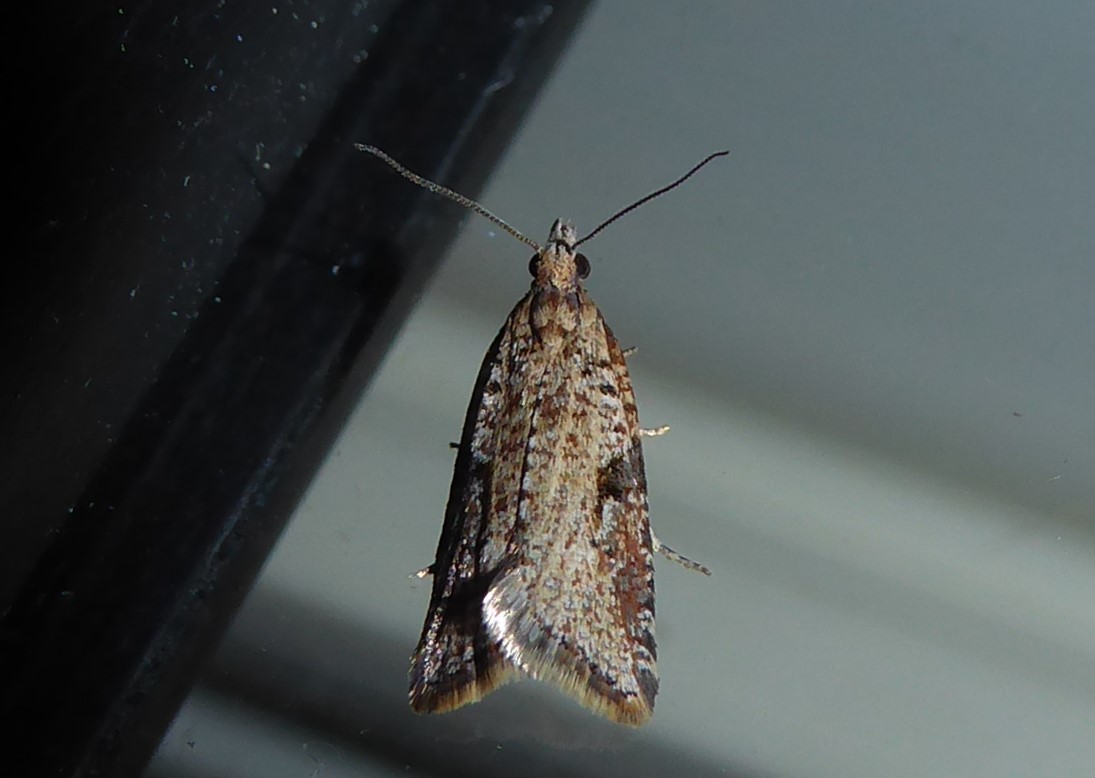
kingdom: Animalia
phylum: Arthropoda
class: Insecta
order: Lepidoptera
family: Tortricidae
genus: Capua
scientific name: Capua semiferana
